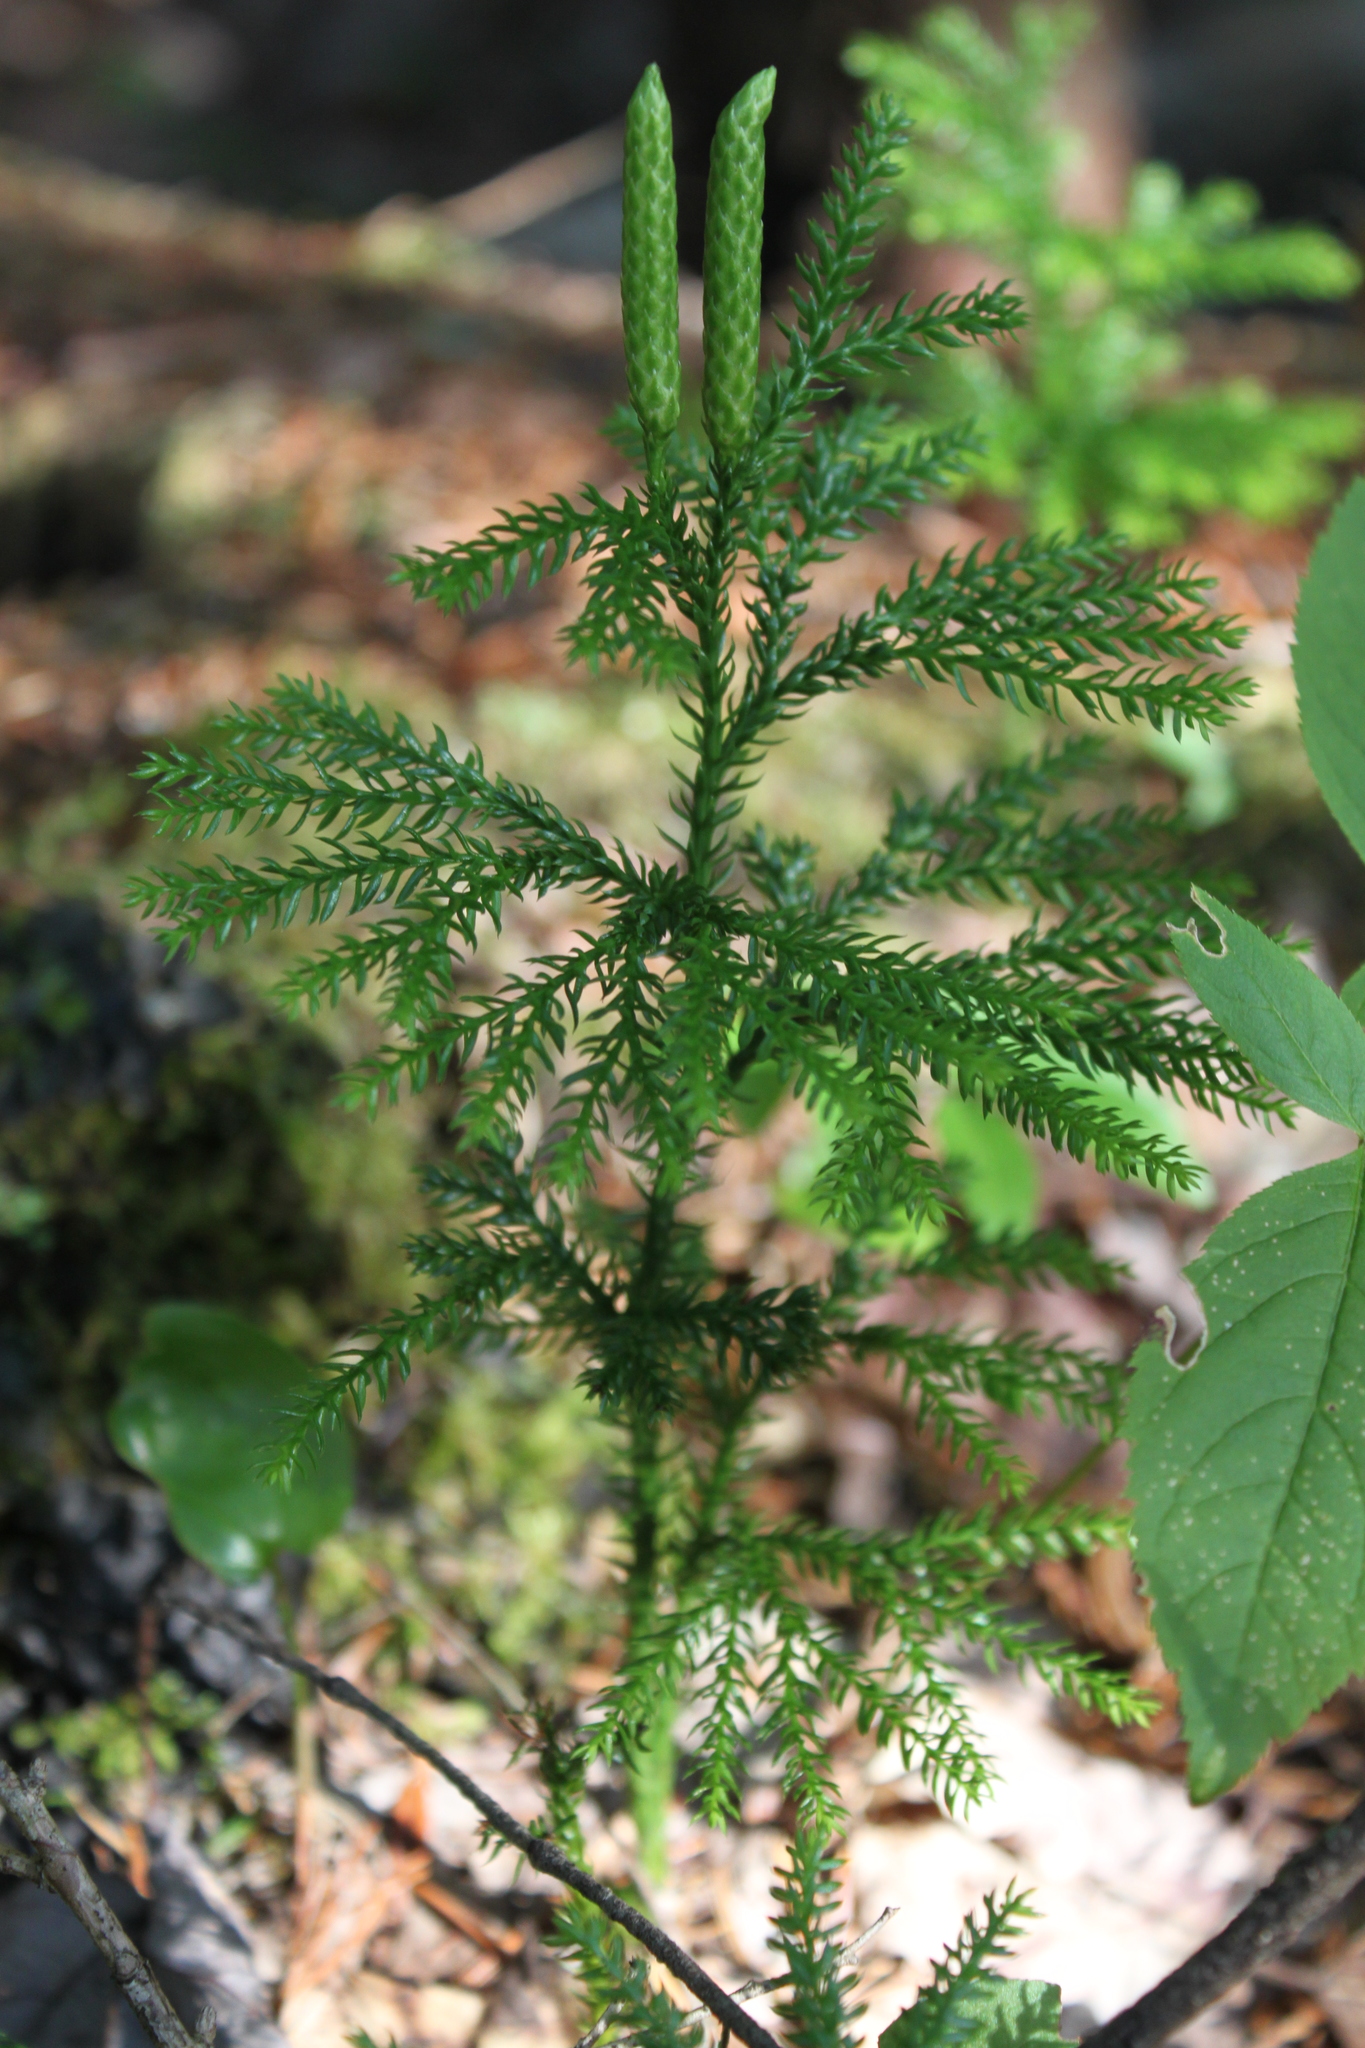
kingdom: Plantae
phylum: Tracheophyta
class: Lycopodiopsida
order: Lycopodiales
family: Lycopodiaceae
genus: Dendrolycopodium
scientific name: Dendrolycopodium dendroideum
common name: Northern tree-clubmoss
